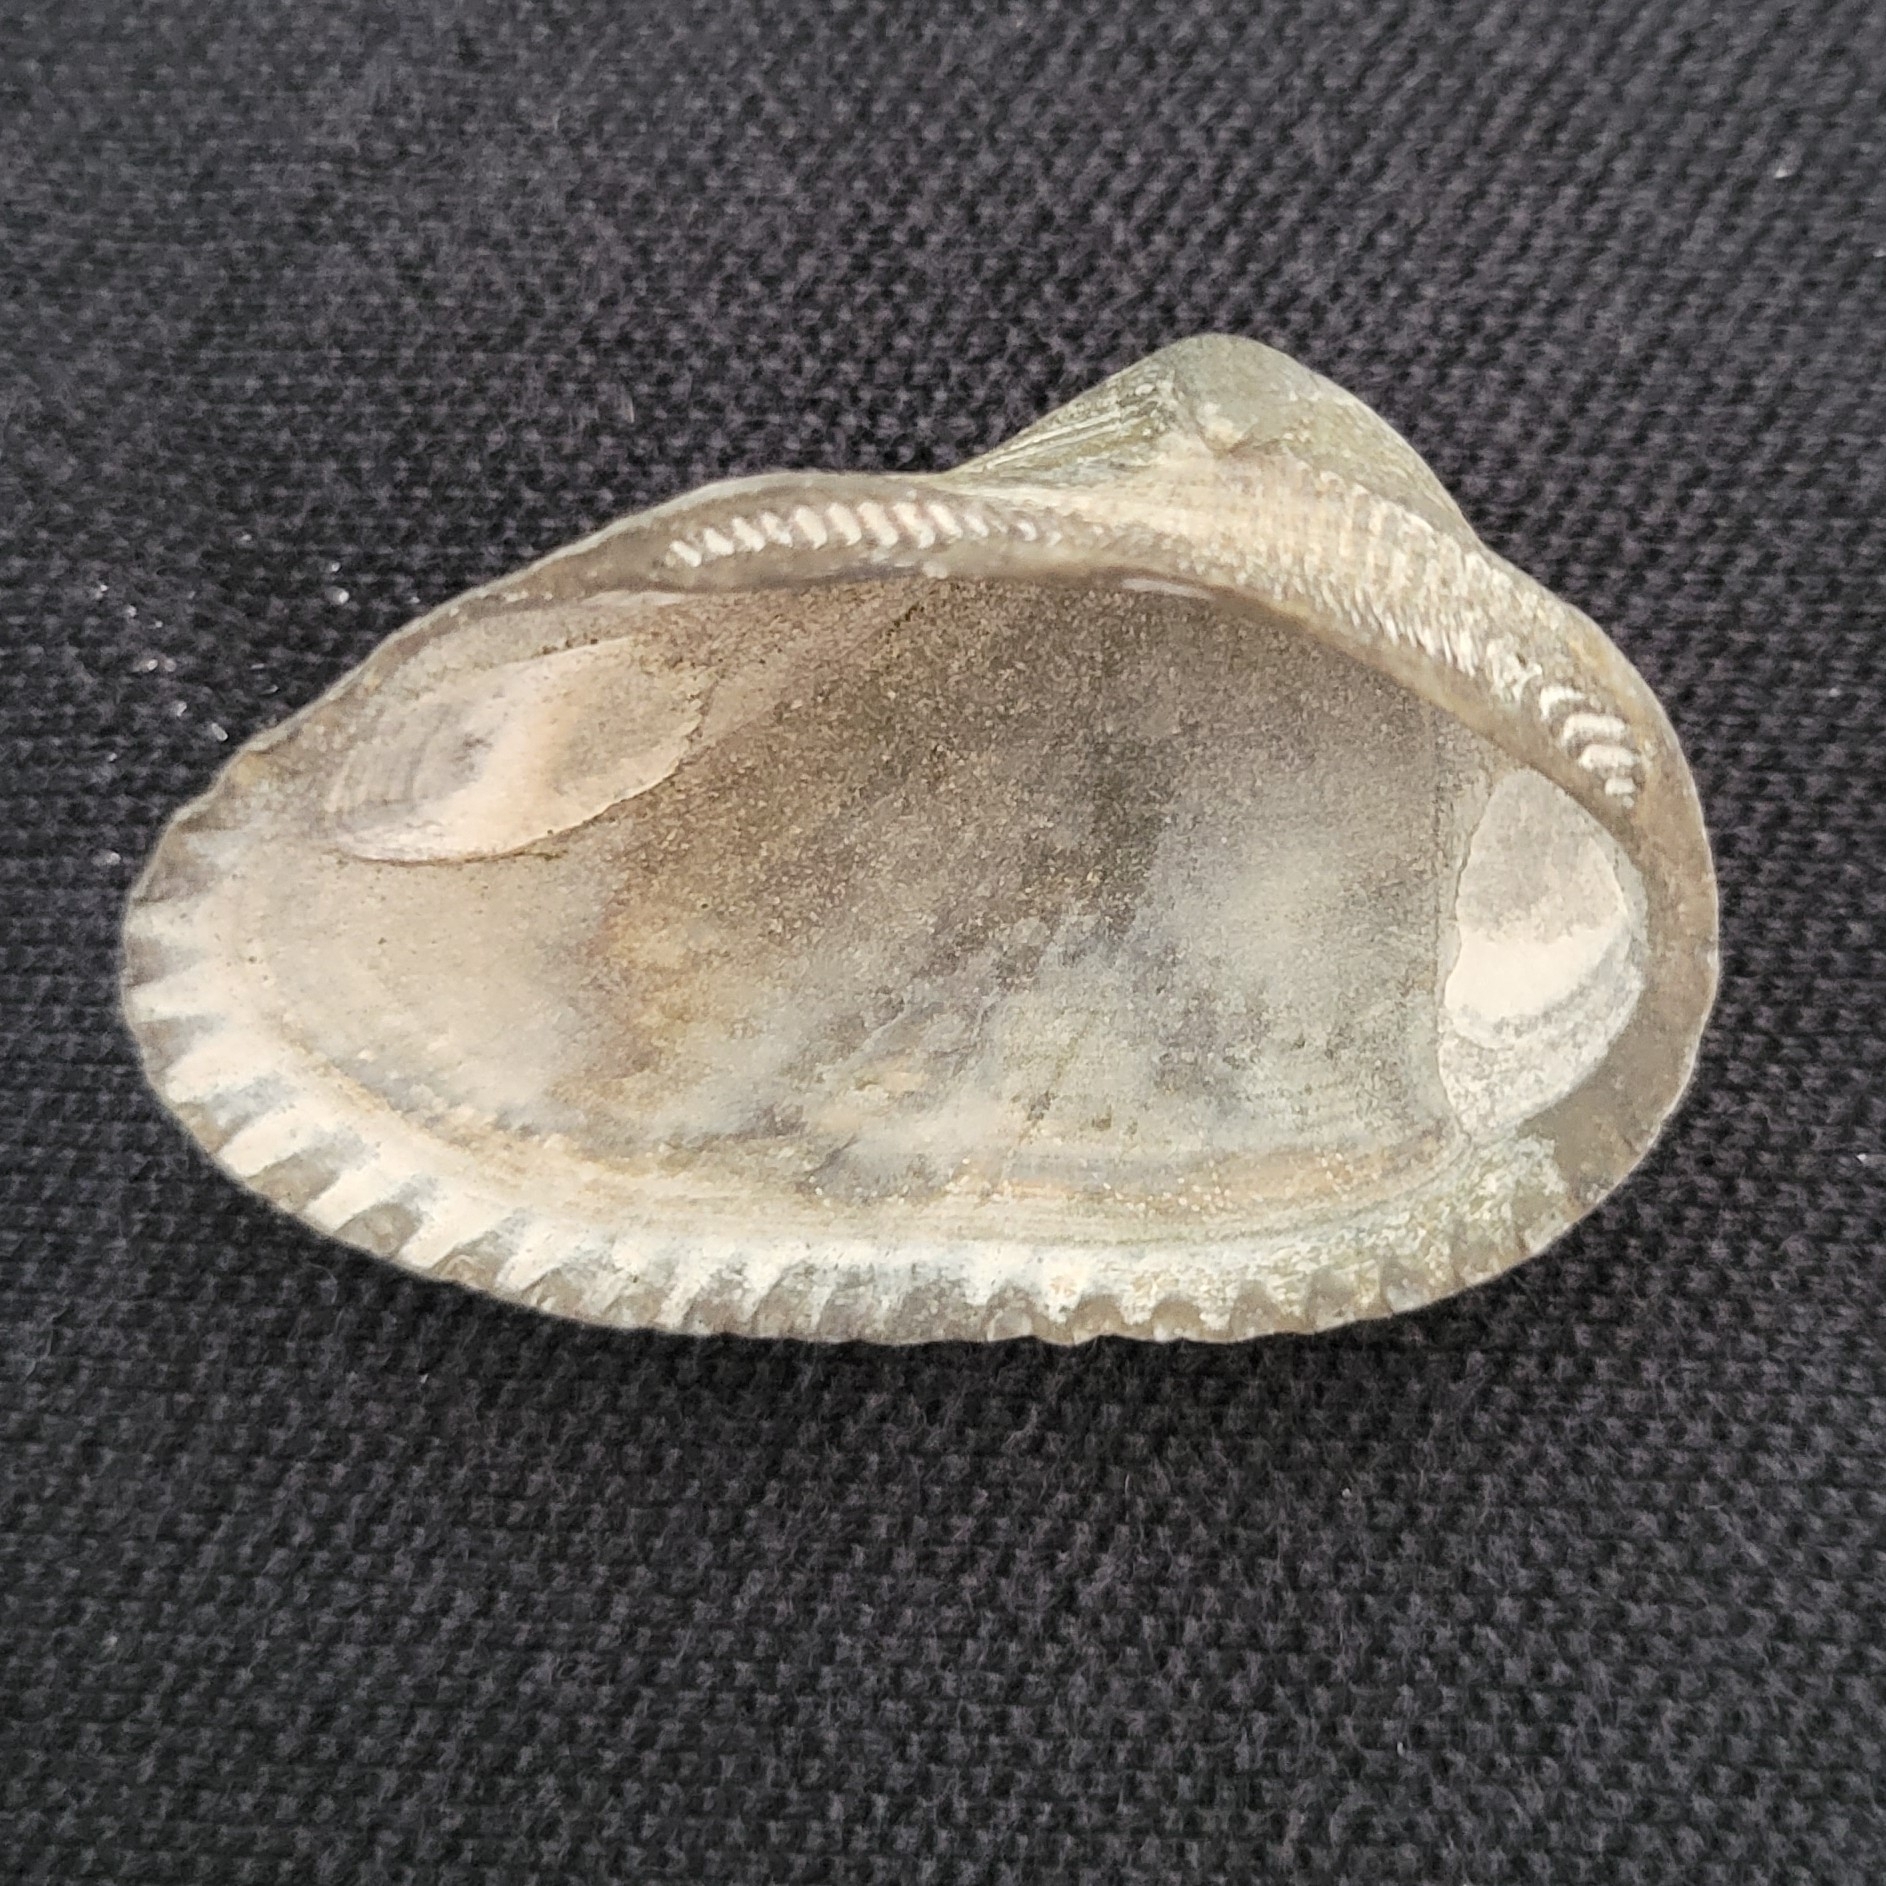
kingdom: Animalia
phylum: Mollusca
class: Bivalvia
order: Arcida
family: Arcidae
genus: Anadara
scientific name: Anadara transversa
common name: Transverse ark
